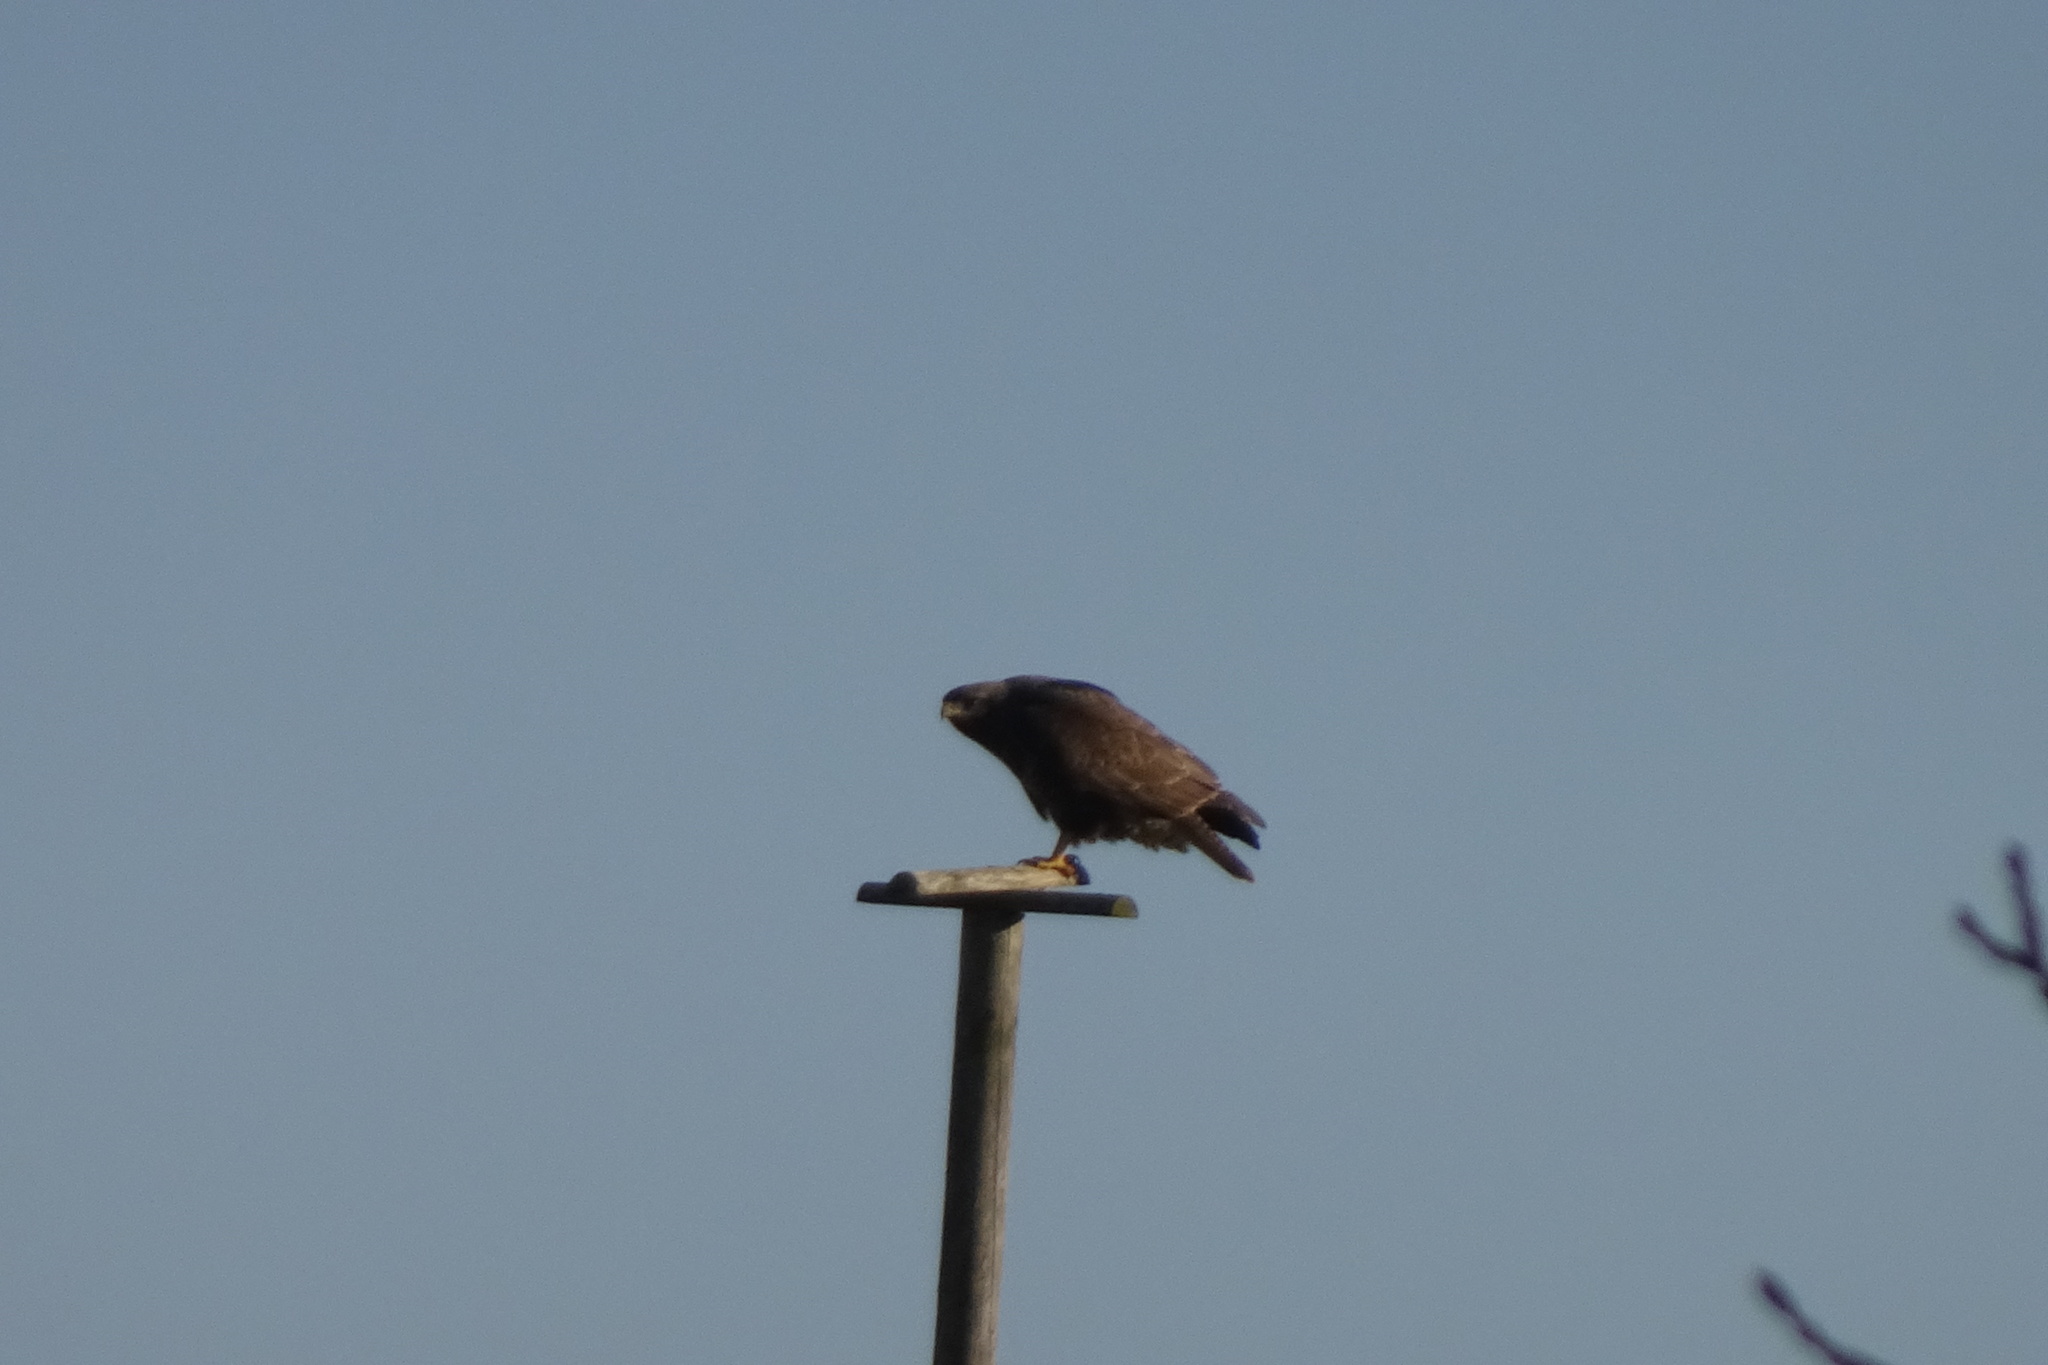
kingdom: Animalia
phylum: Chordata
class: Aves
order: Accipitriformes
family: Accipitridae
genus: Buteo
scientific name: Buteo buteo
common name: Common buzzard
